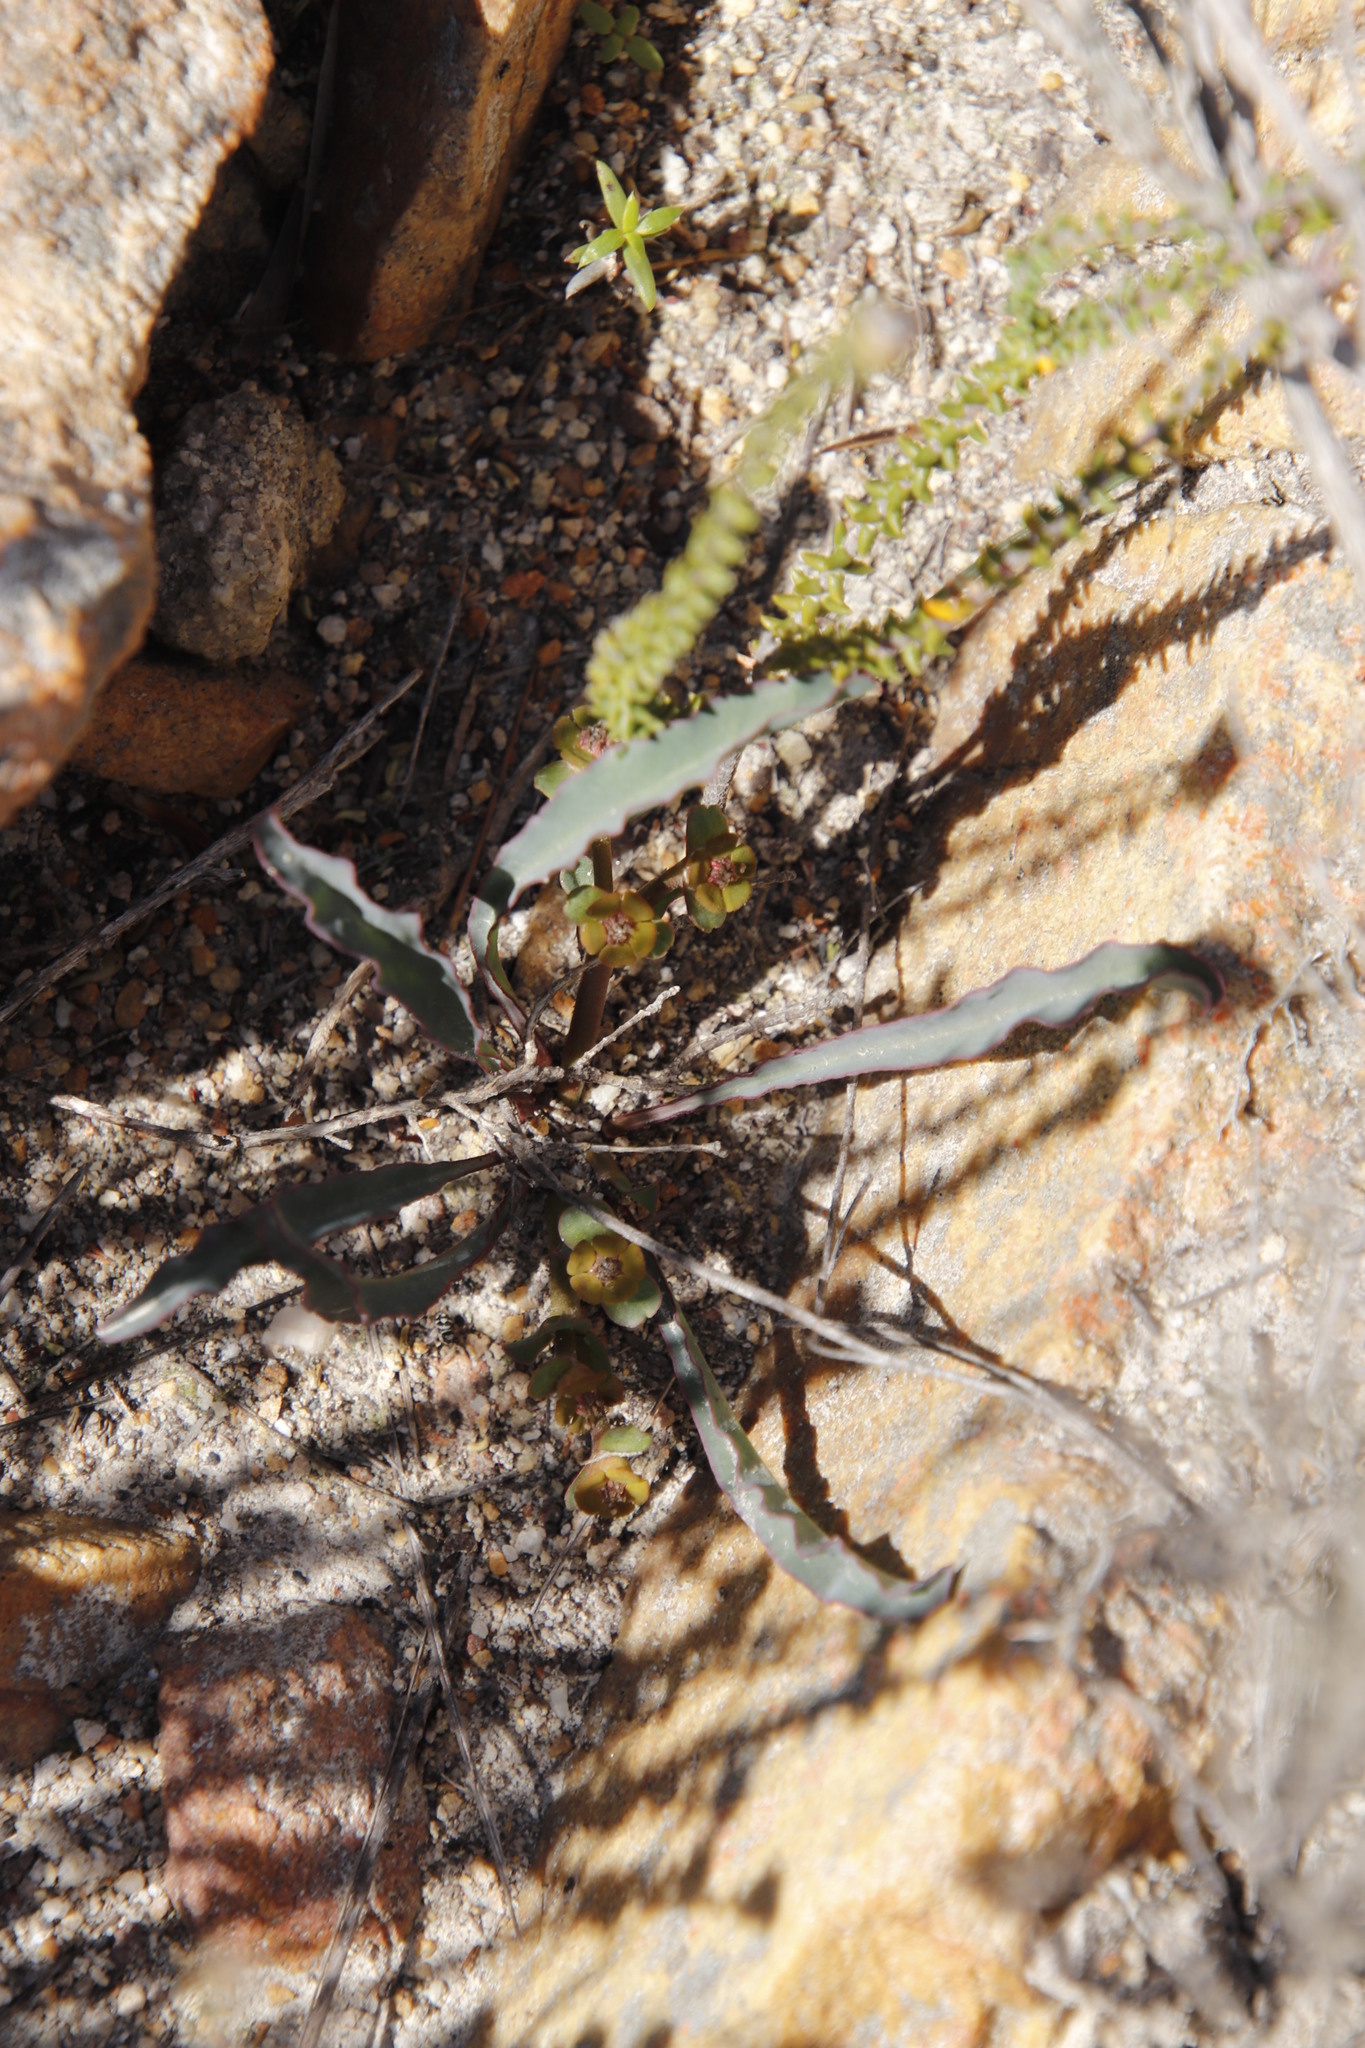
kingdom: Plantae
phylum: Tracheophyta
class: Magnoliopsida
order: Malpighiales
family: Euphorbiaceae
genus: Euphorbia
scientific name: Euphorbia tuberosa
